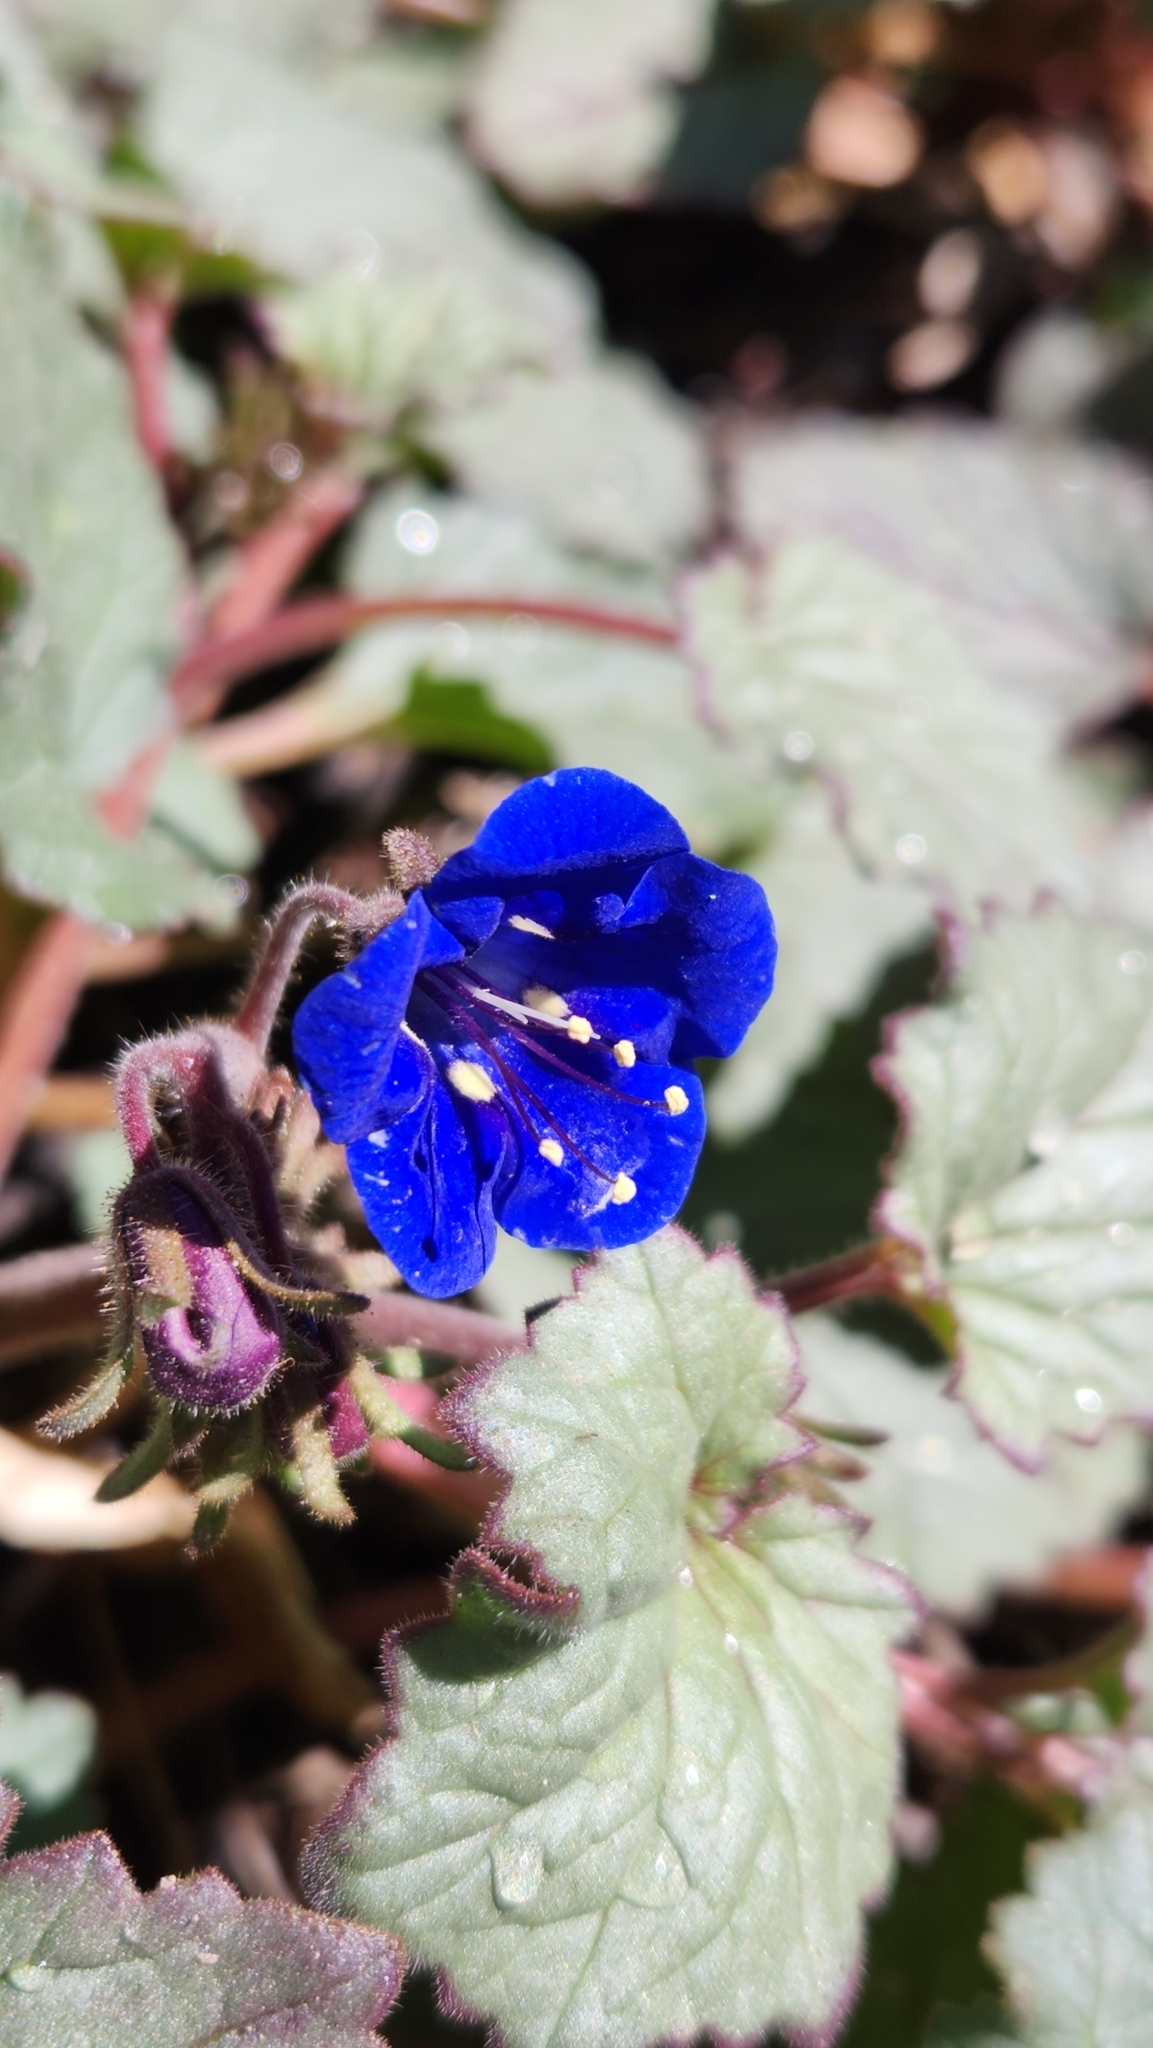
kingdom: Plantae
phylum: Tracheophyta
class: Magnoliopsida
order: Boraginales
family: Hydrophyllaceae
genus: Phacelia
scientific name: Phacelia campanularia
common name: California bluebell
